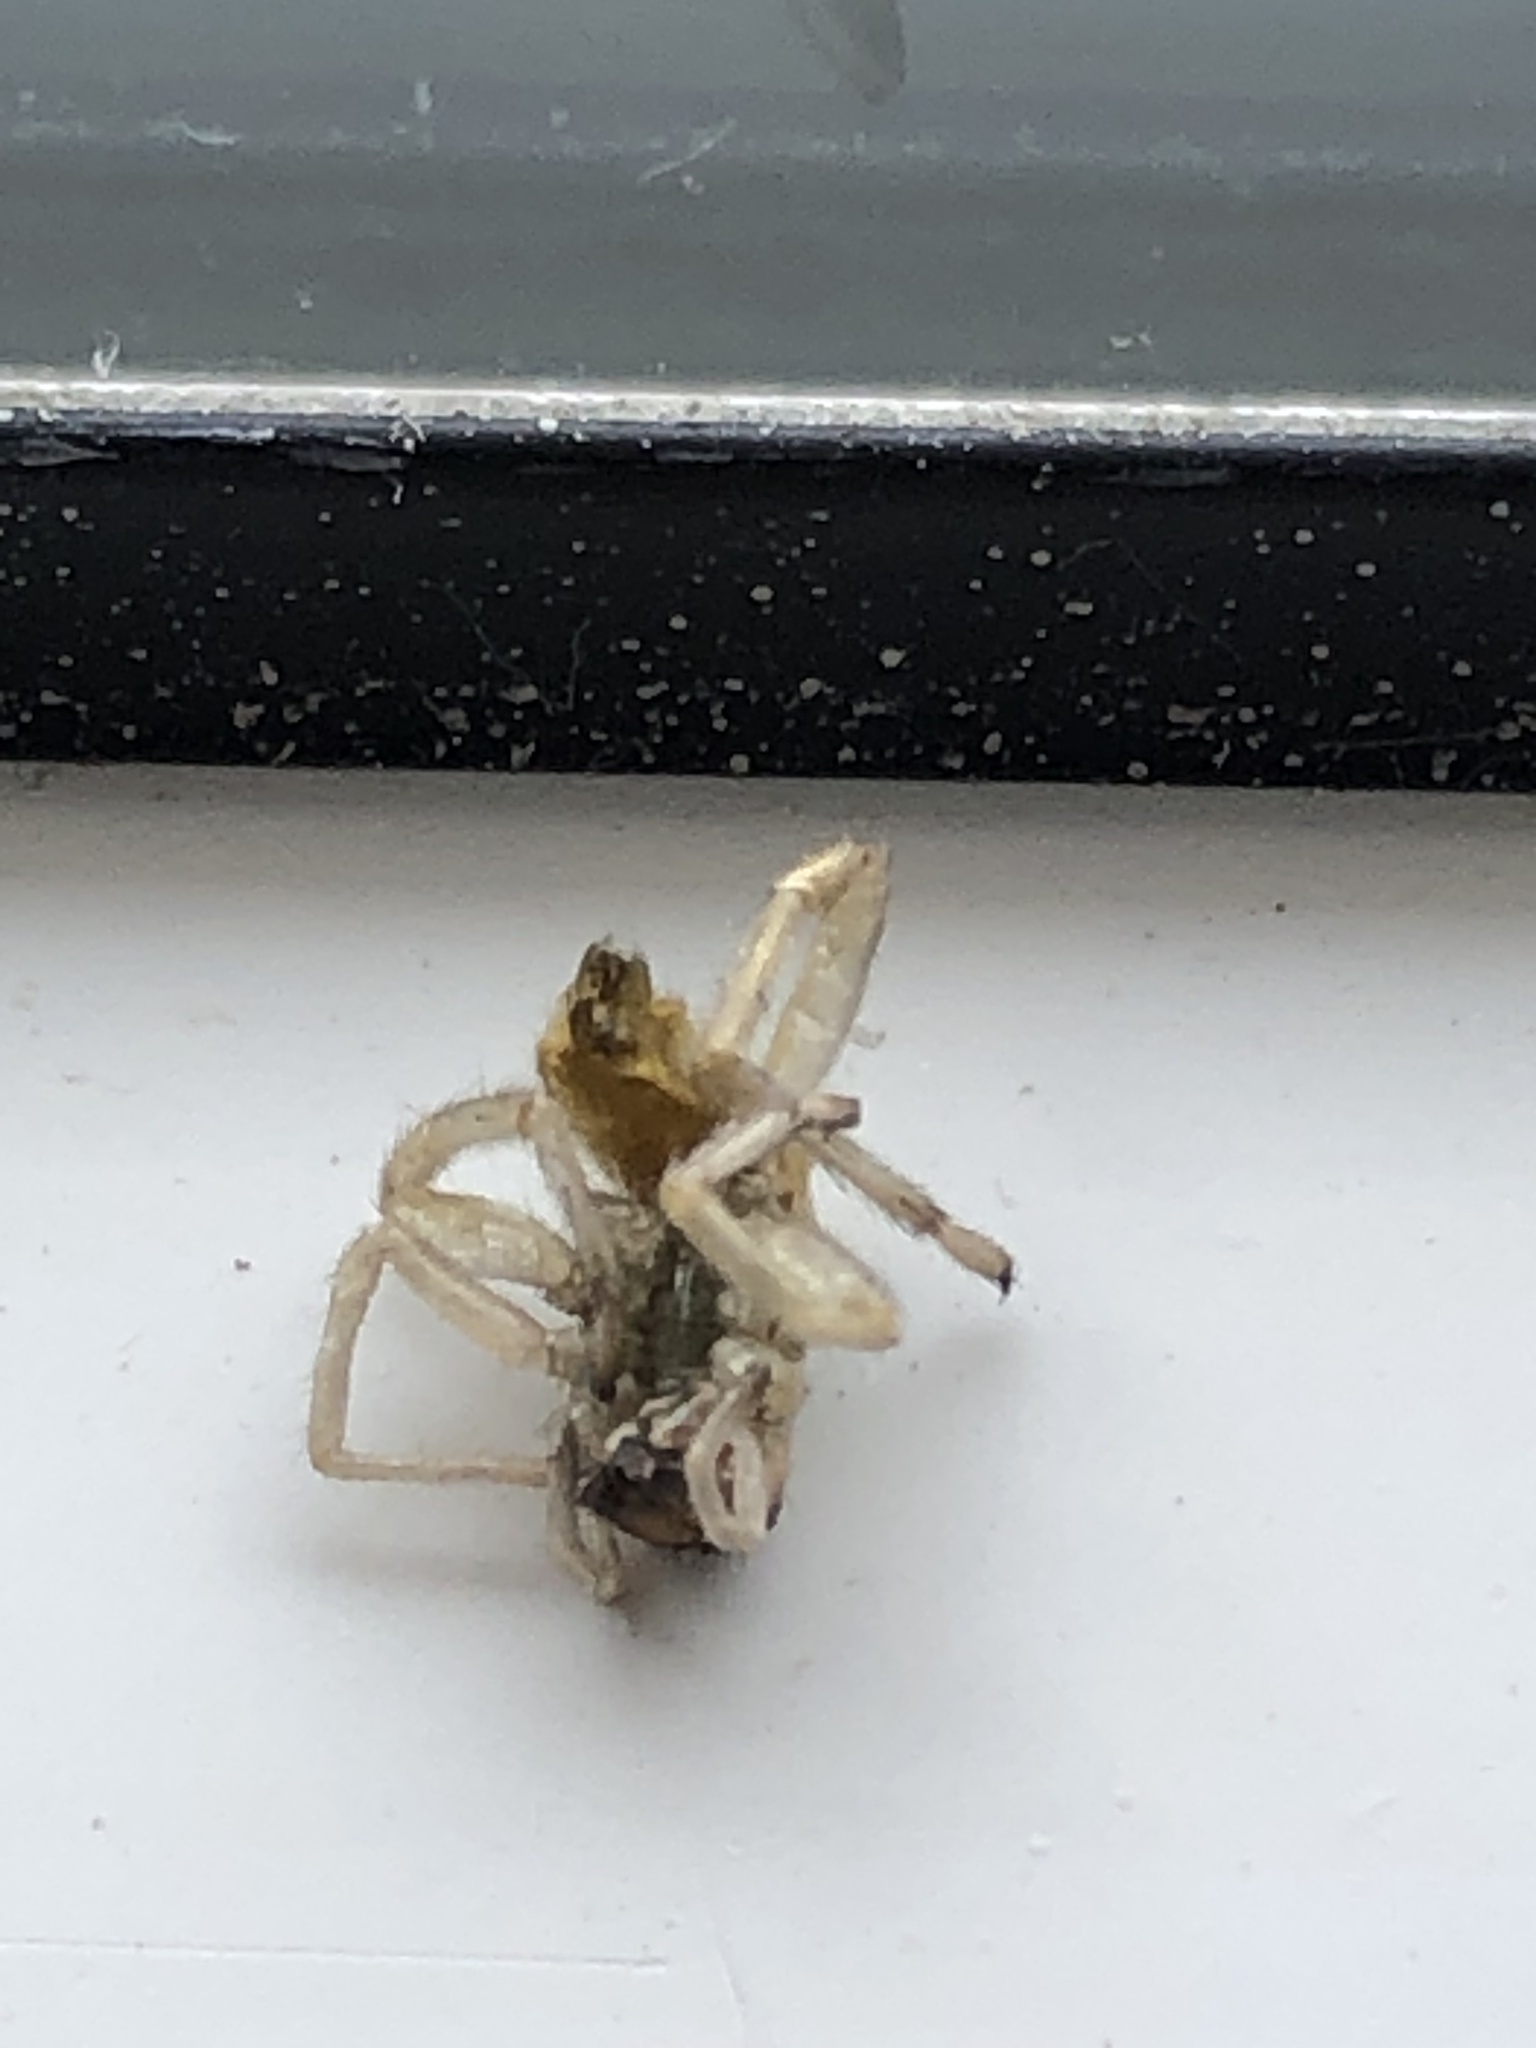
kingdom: Animalia
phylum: Arthropoda
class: Arachnida
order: Araneae
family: Cheiracanthiidae
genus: Cheiracanthium
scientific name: Cheiracanthium mildei
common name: Northern yellow sac spider
